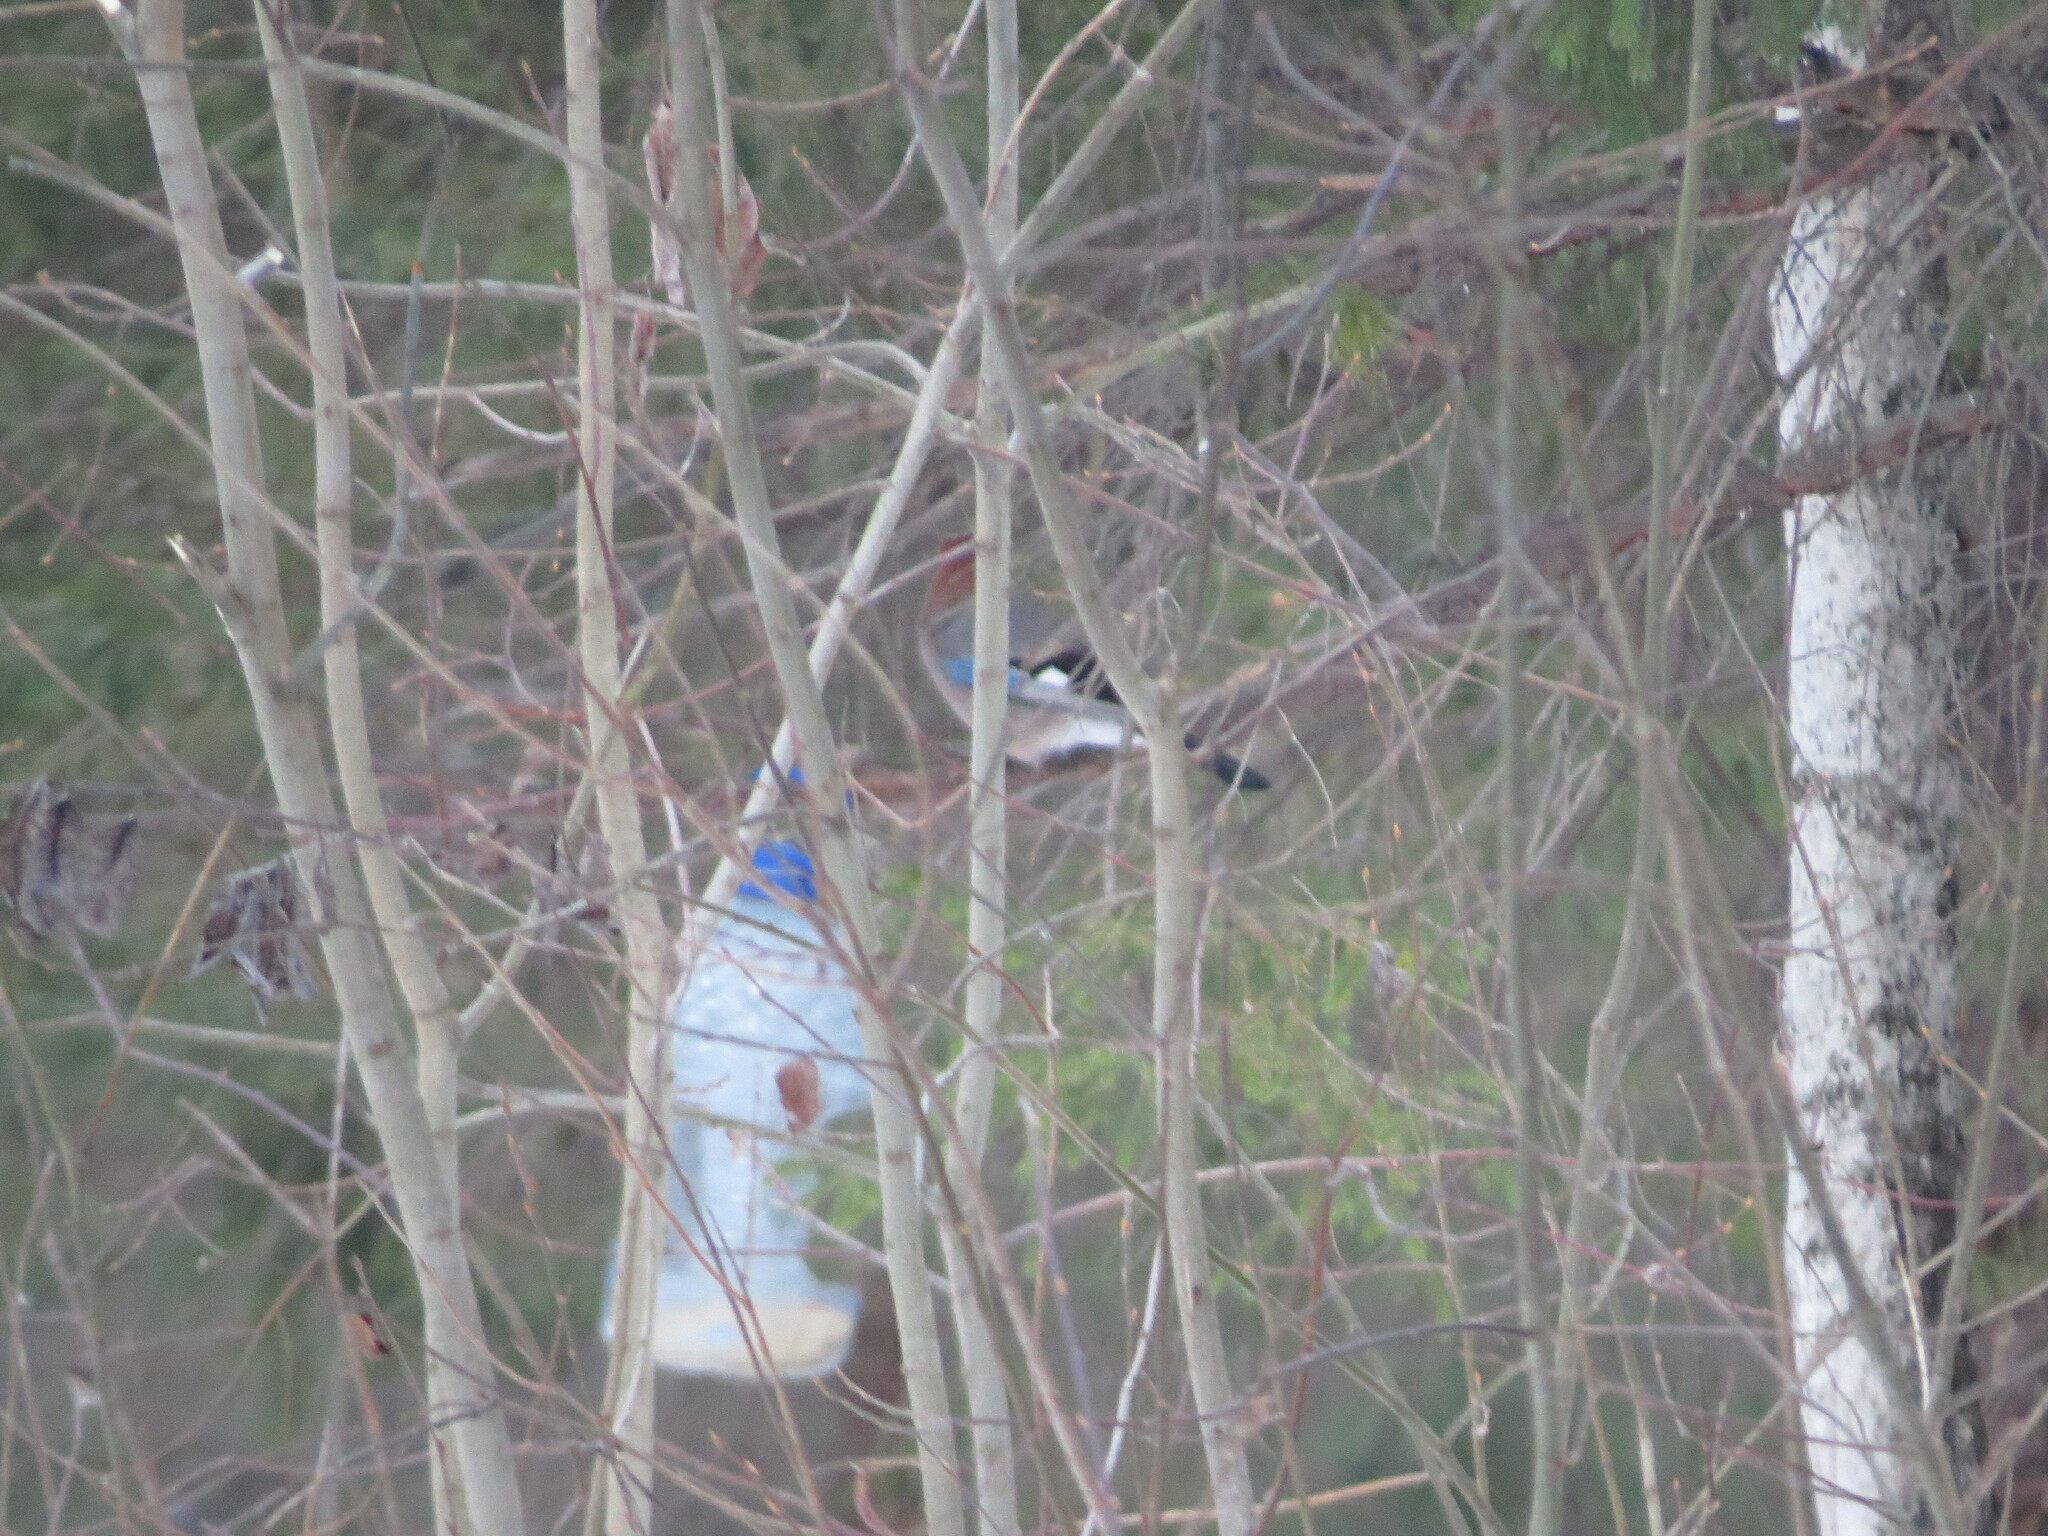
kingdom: Animalia
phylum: Chordata
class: Aves
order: Passeriformes
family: Corvidae
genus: Garrulus
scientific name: Garrulus glandarius
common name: Eurasian jay
